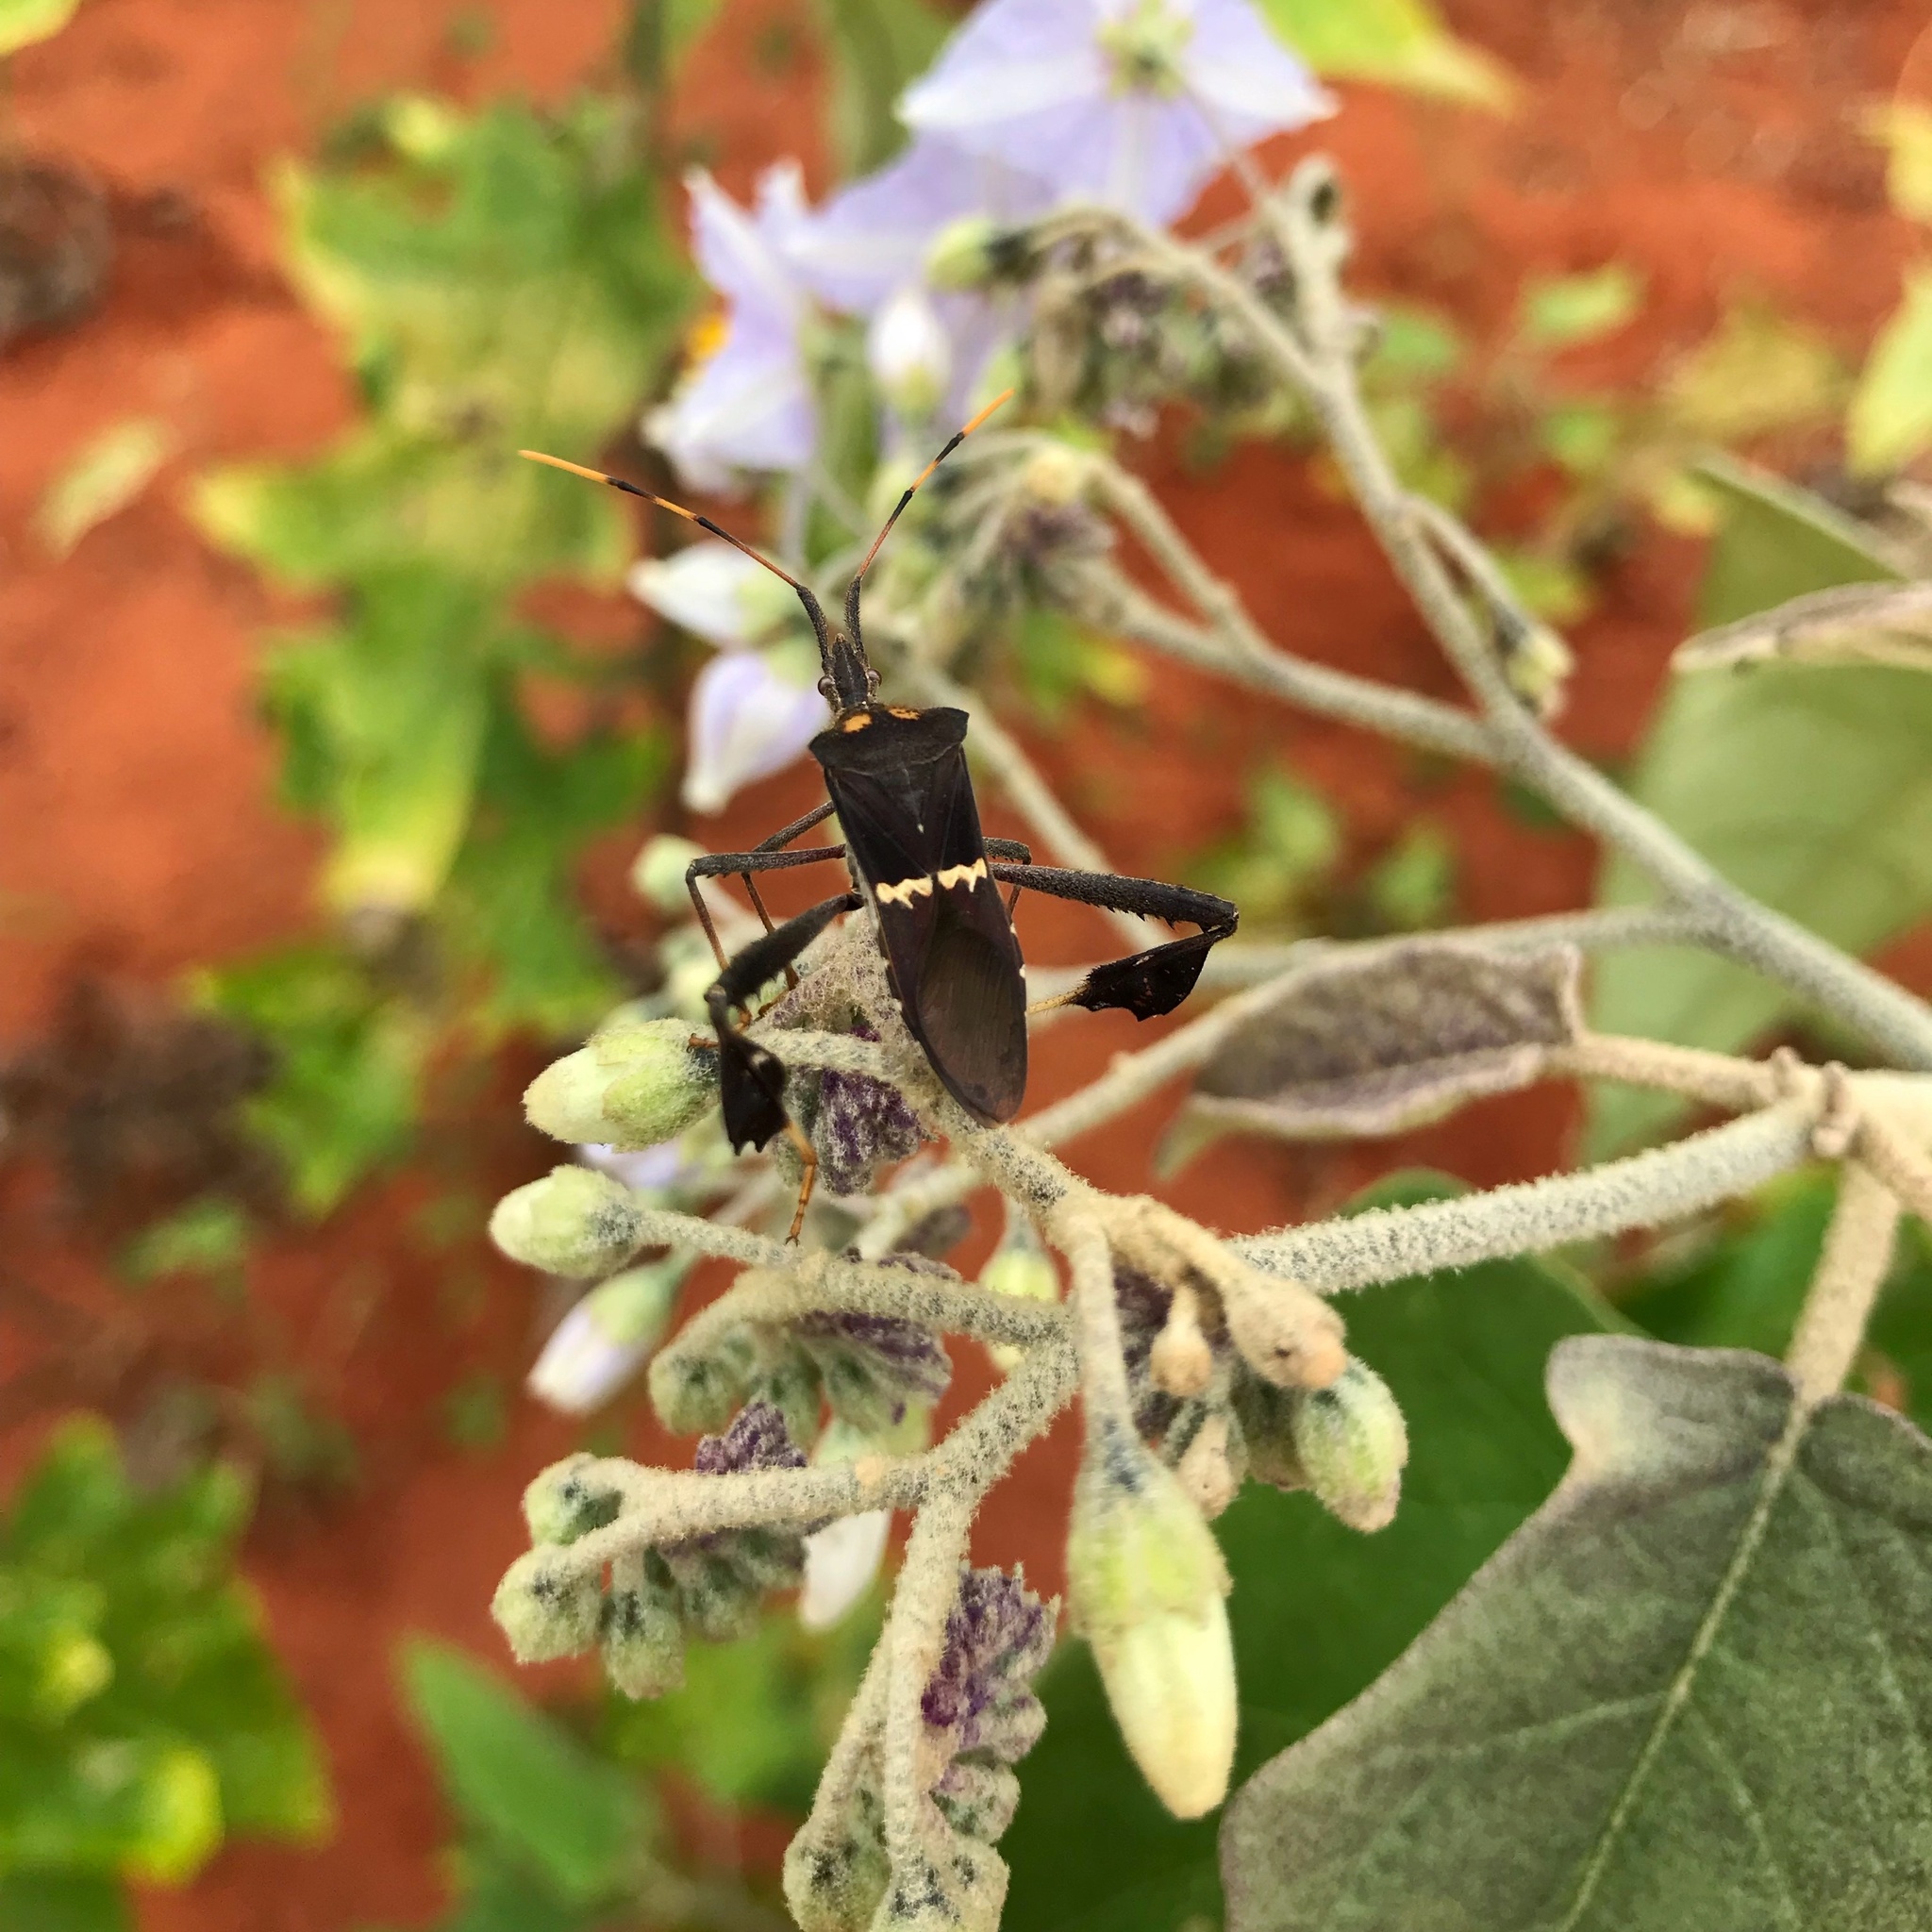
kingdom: Animalia
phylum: Arthropoda
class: Insecta
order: Hemiptera
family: Coreidae
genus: Leptoglossus
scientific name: Leptoglossus zonatus
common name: Large-legged bug
